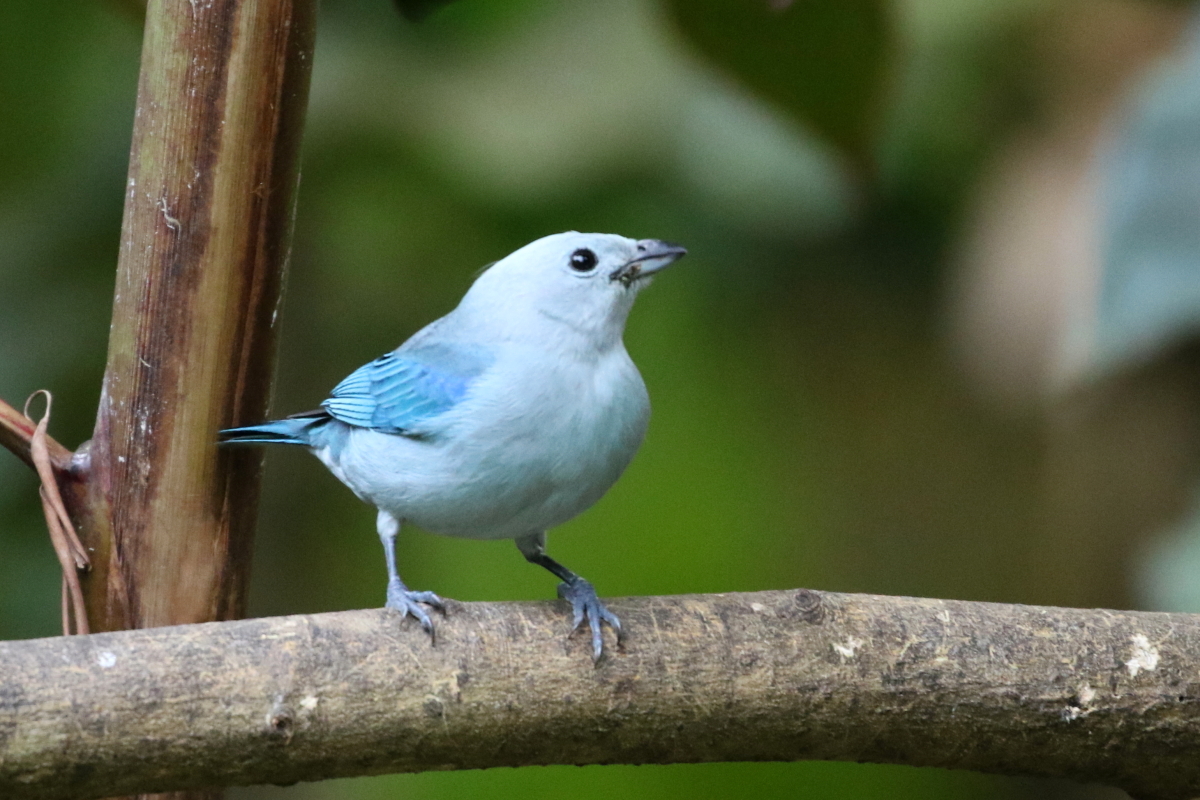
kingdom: Animalia
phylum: Chordata
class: Aves
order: Passeriformes
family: Thraupidae
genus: Thraupis
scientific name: Thraupis episcopus
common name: Blue-grey tanager
